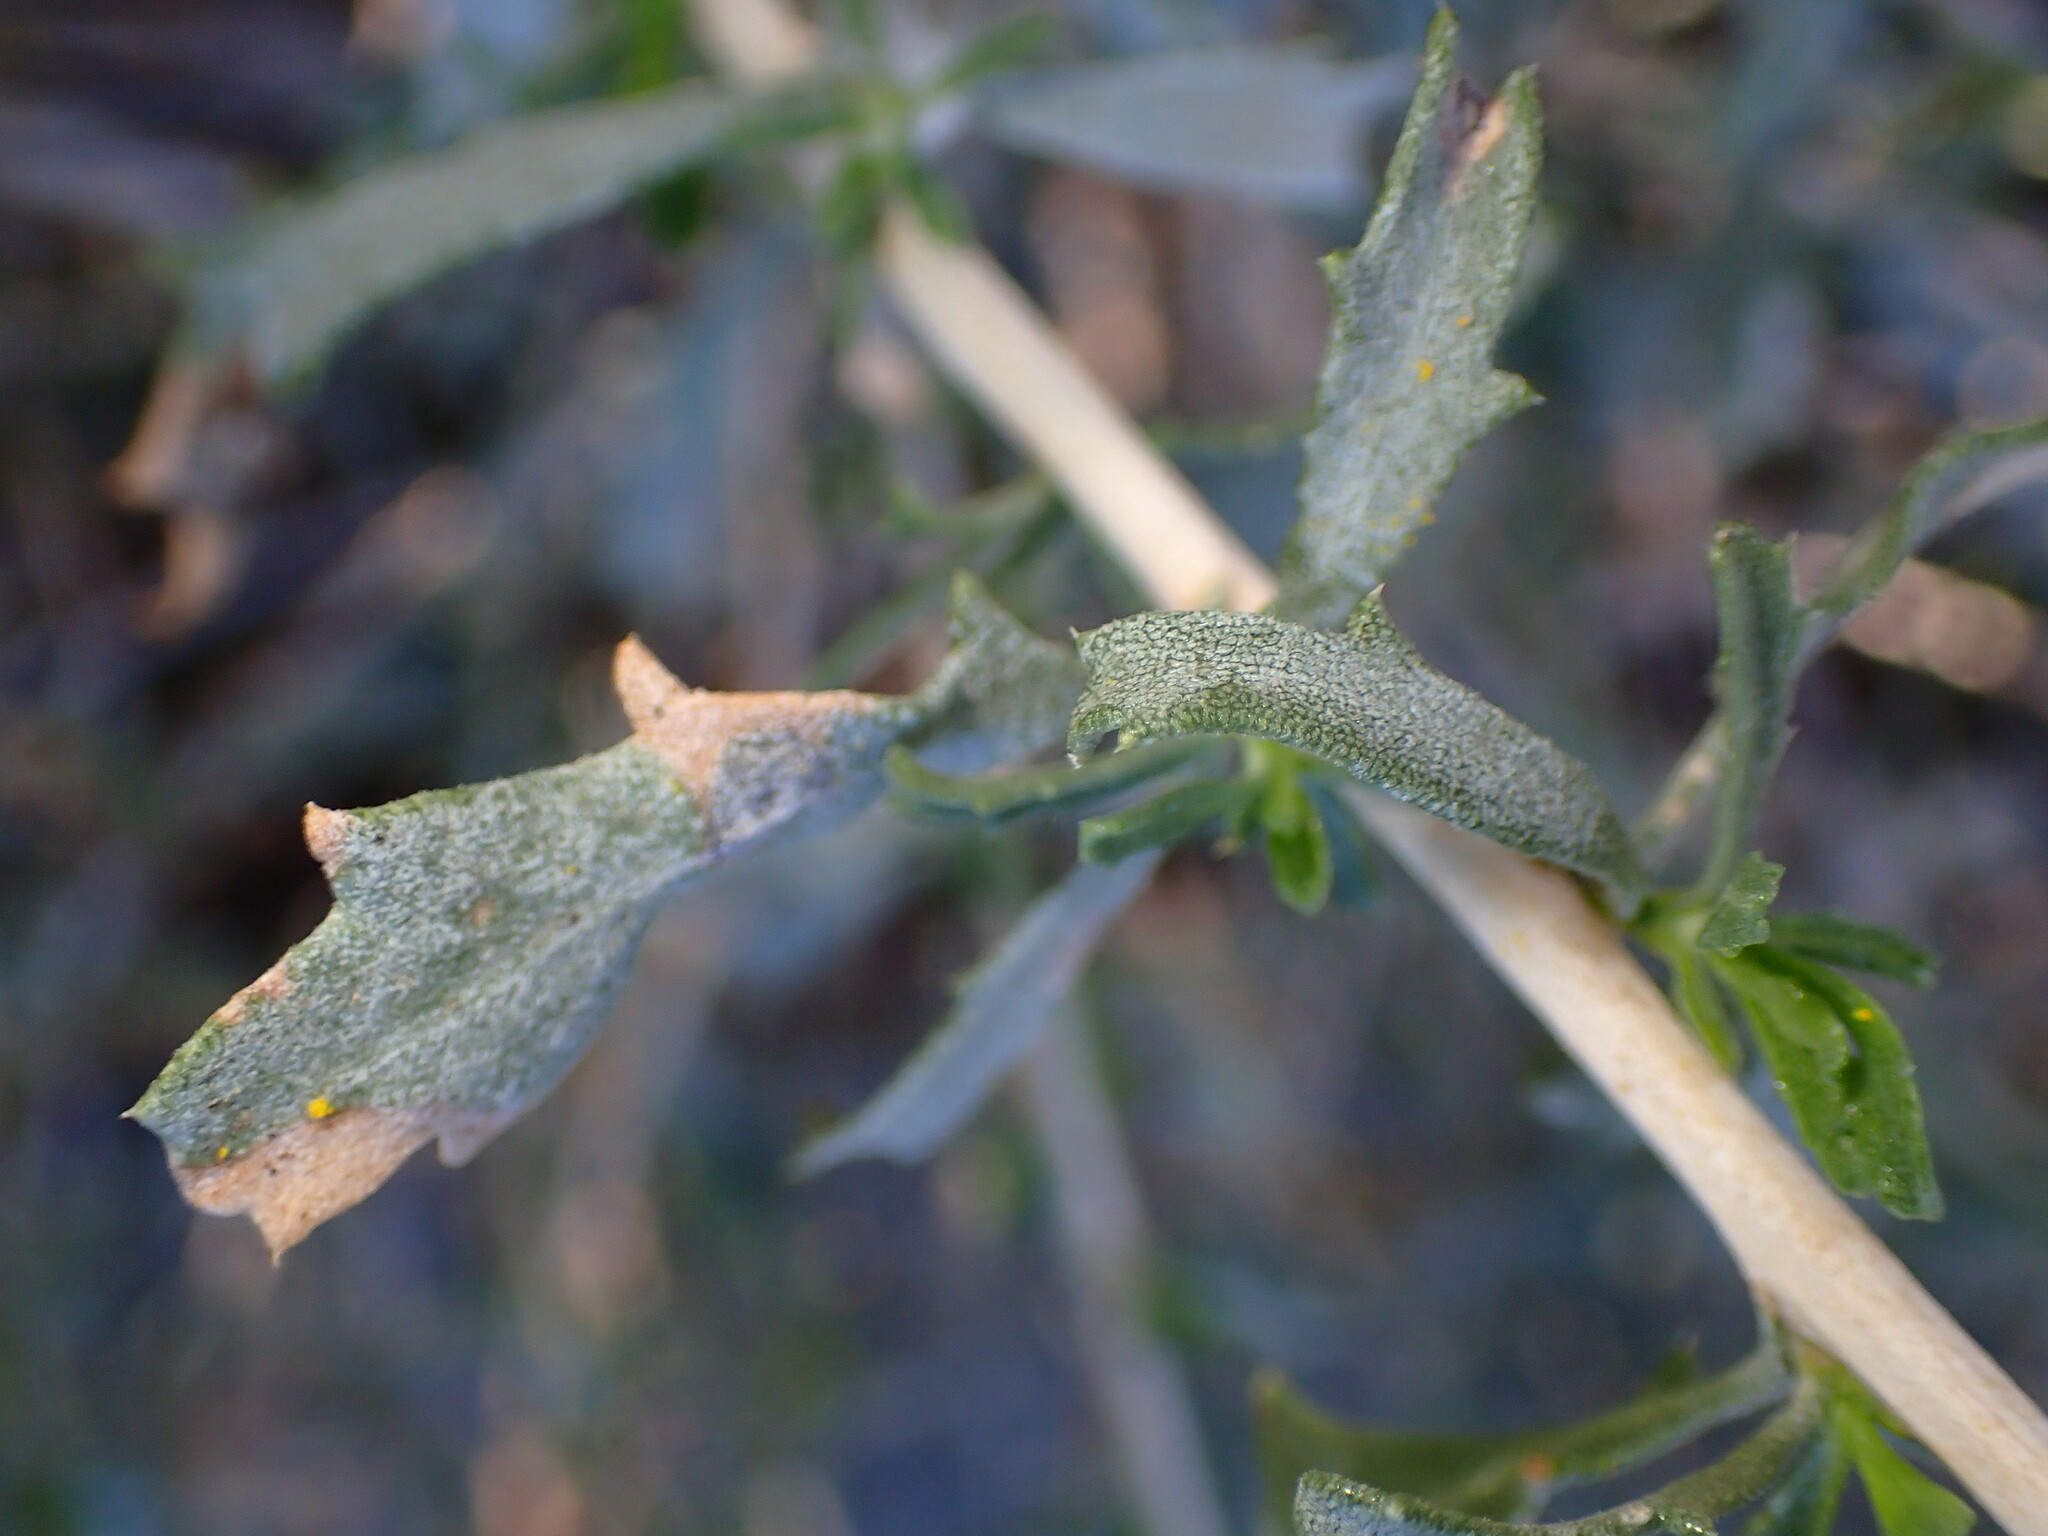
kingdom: Plantae
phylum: Tracheophyta
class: Magnoliopsida
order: Asterales
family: Asteraceae
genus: Isocoma
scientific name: Isocoma acradenia
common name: Alkali jimmyweed
